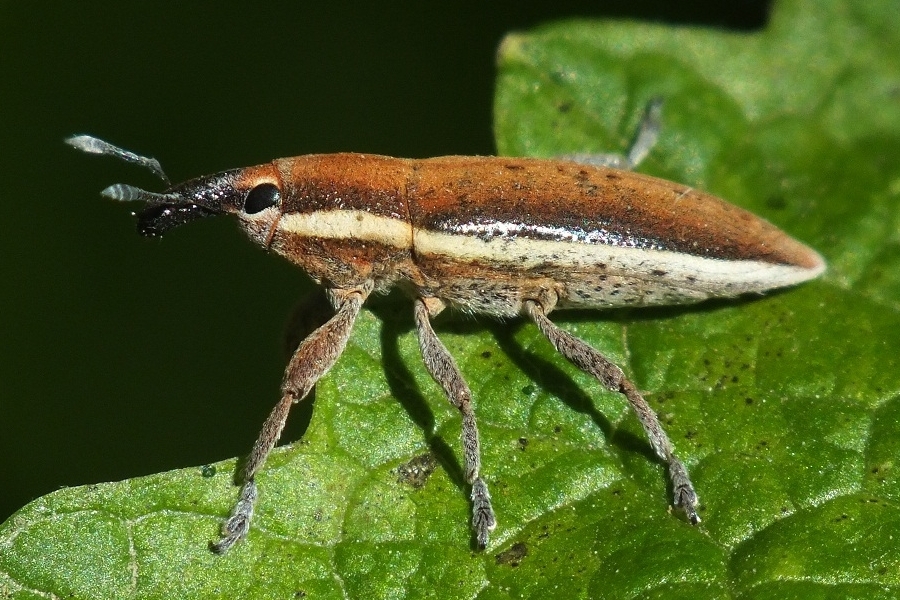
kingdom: Animalia
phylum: Arthropoda
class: Insecta
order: Coleoptera
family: Curculionidae
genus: Lixus
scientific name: Lixus albomarginatus
